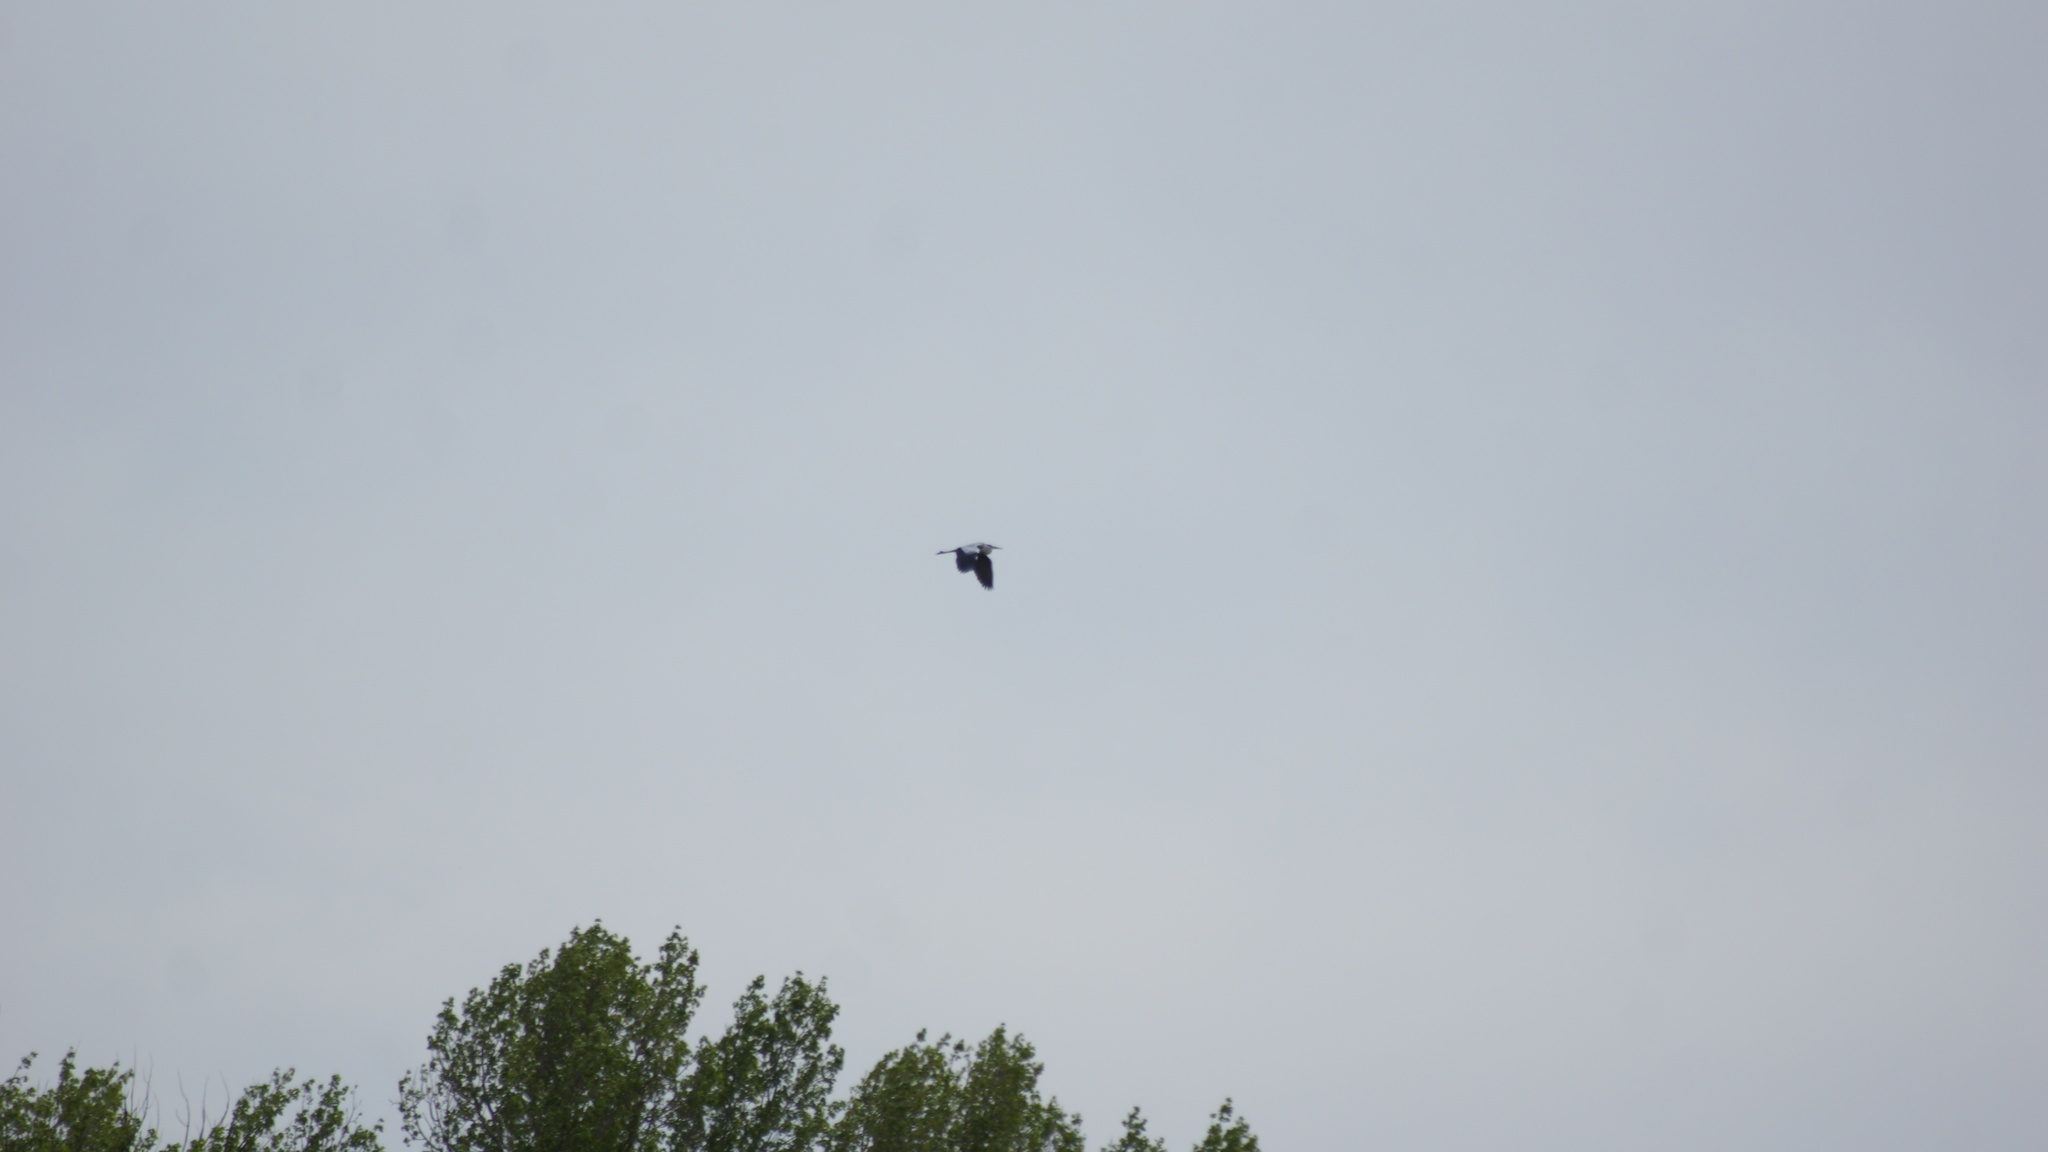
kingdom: Animalia
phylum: Chordata
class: Aves
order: Pelecaniformes
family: Ardeidae
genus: Ardea
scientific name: Ardea cinerea
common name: Grey heron
